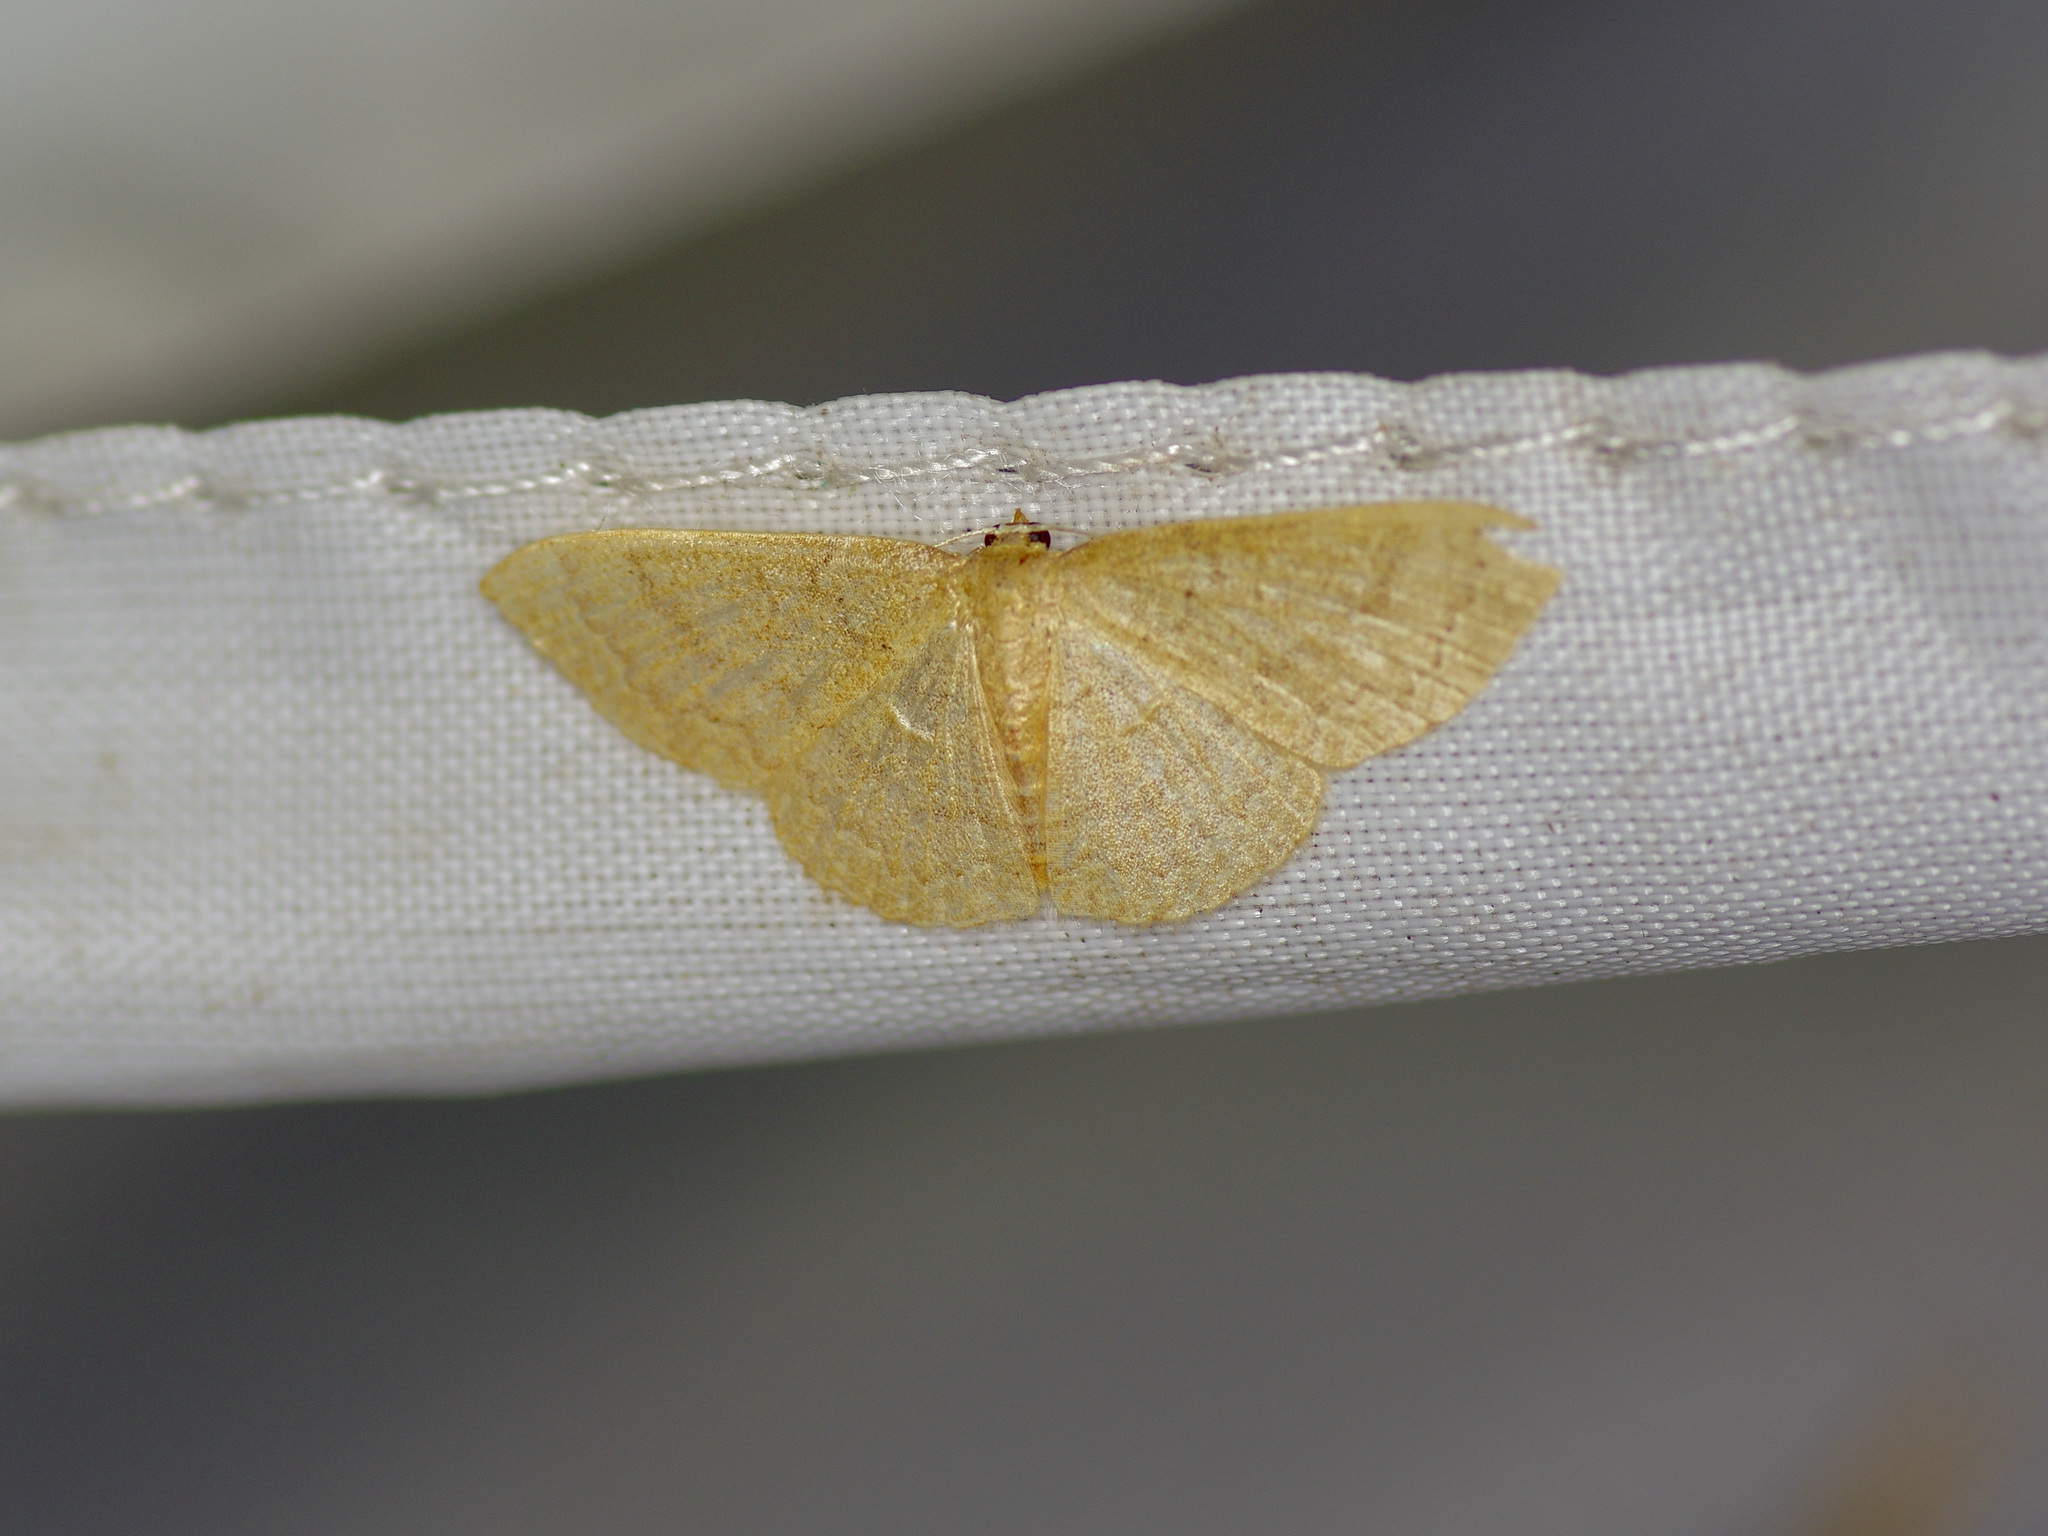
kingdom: Animalia
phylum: Arthropoda
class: Insecta
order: Lepidoptera
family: Geometridae
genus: Pleuroprucha
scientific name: Pleuroprucha insulsaria
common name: Common tan wave
